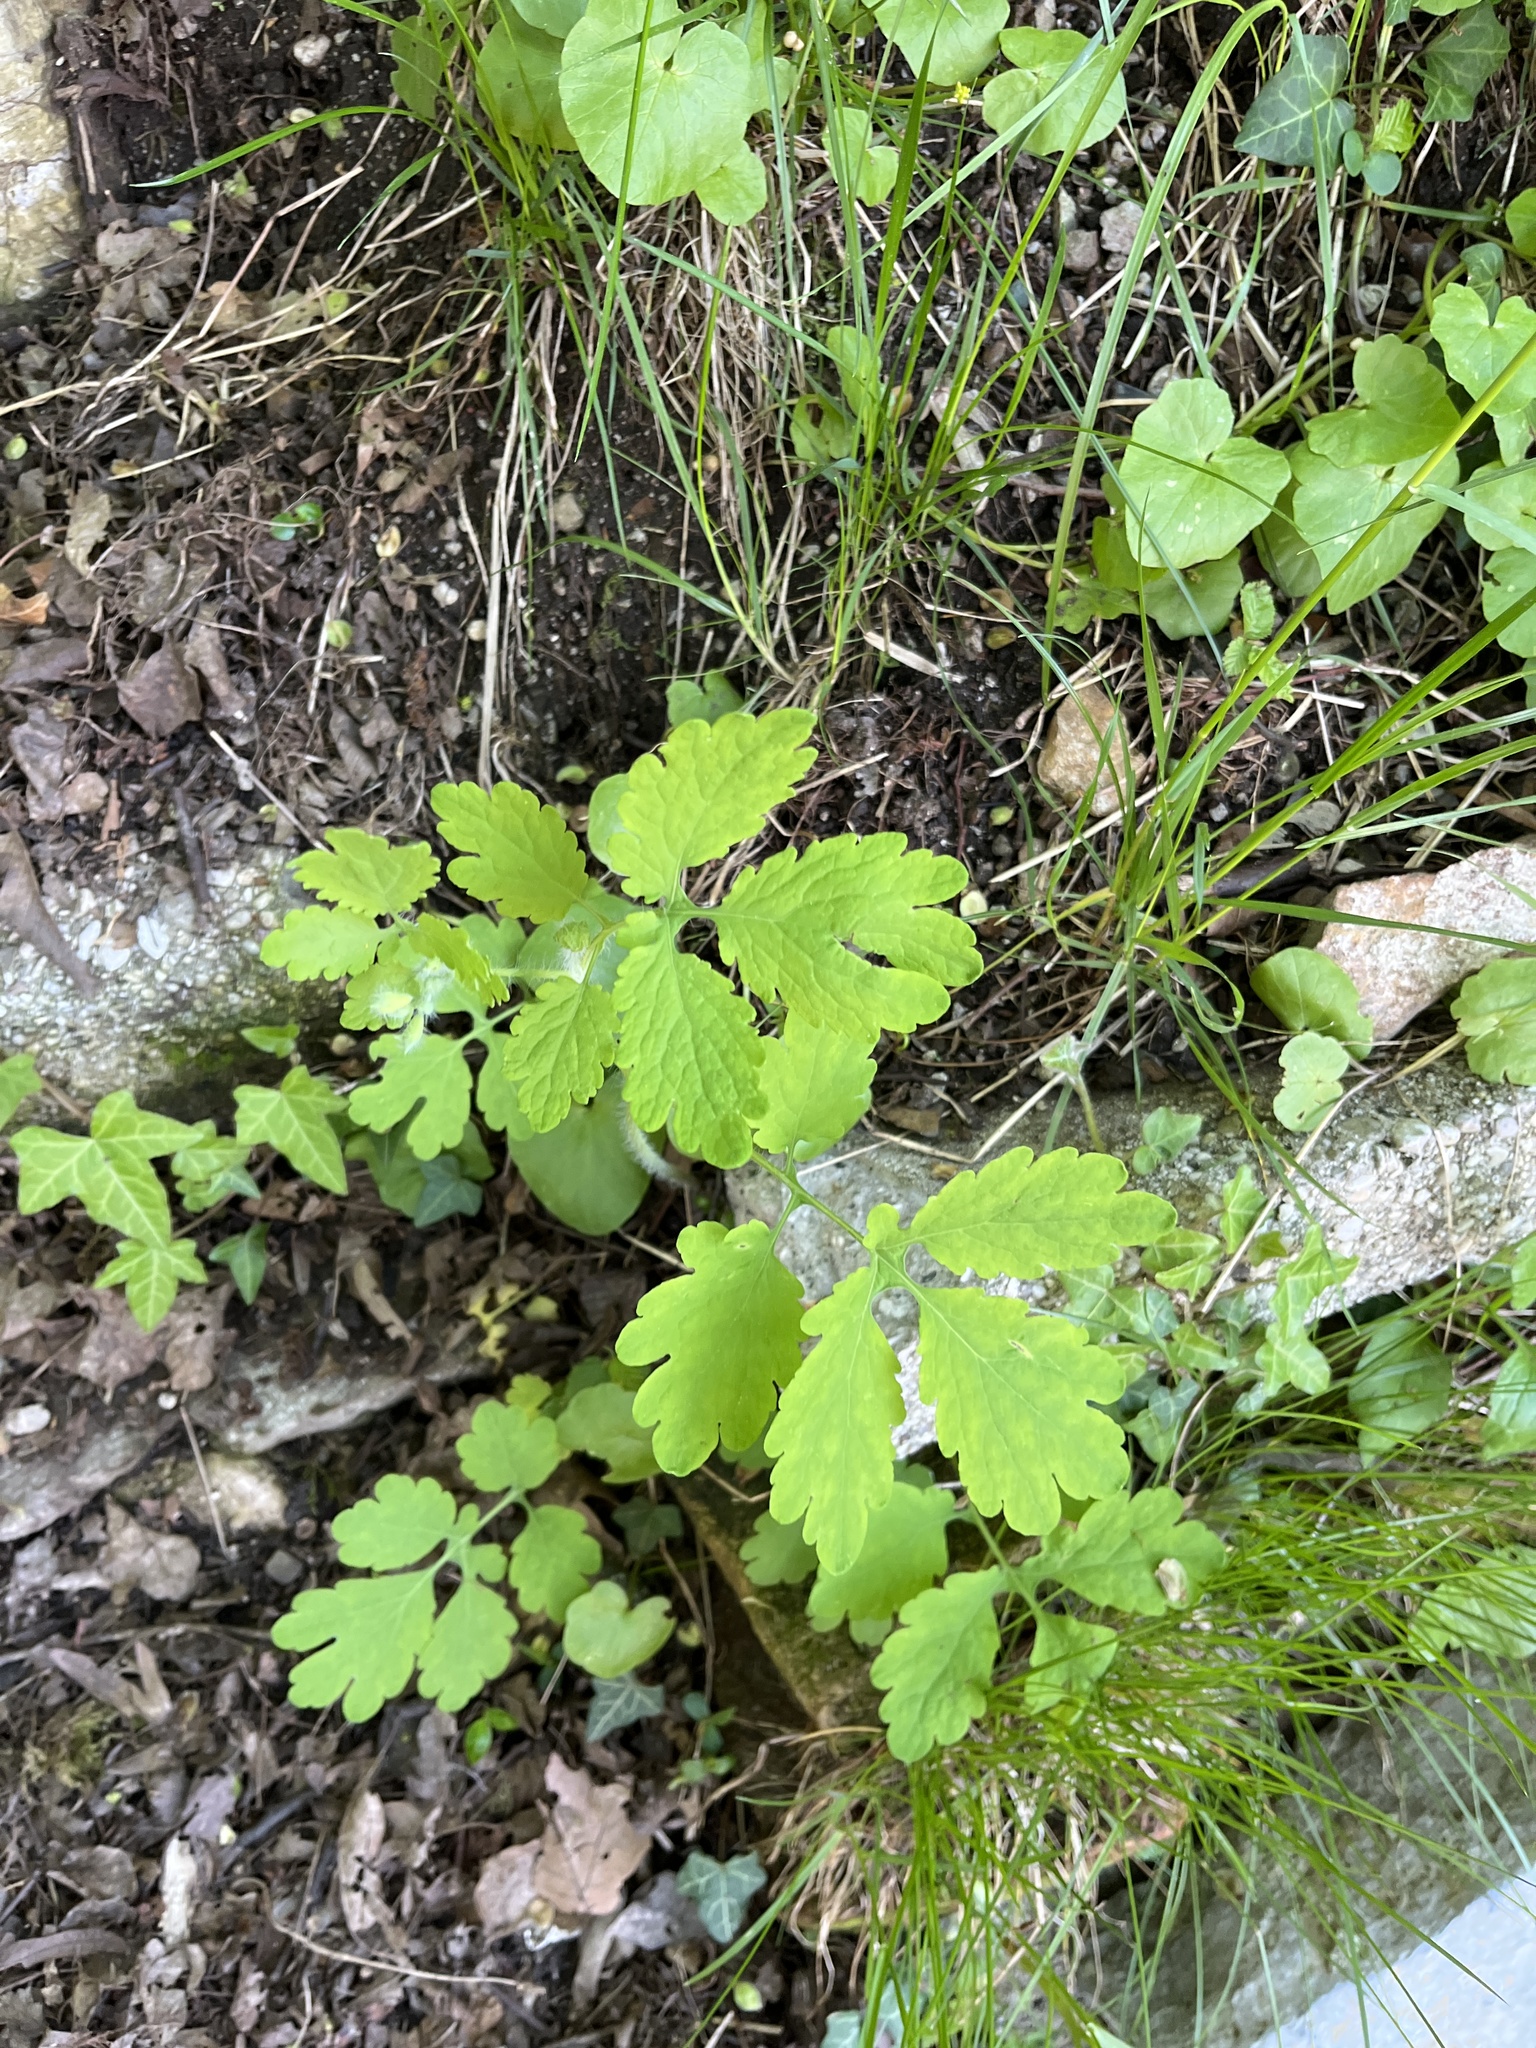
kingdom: Plantae
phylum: Tracheophyta
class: Magnoliopsida
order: Ranunculales
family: Papaveraceae
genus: Chelidonium
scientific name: Chelidonium majus
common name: Greater celandine
